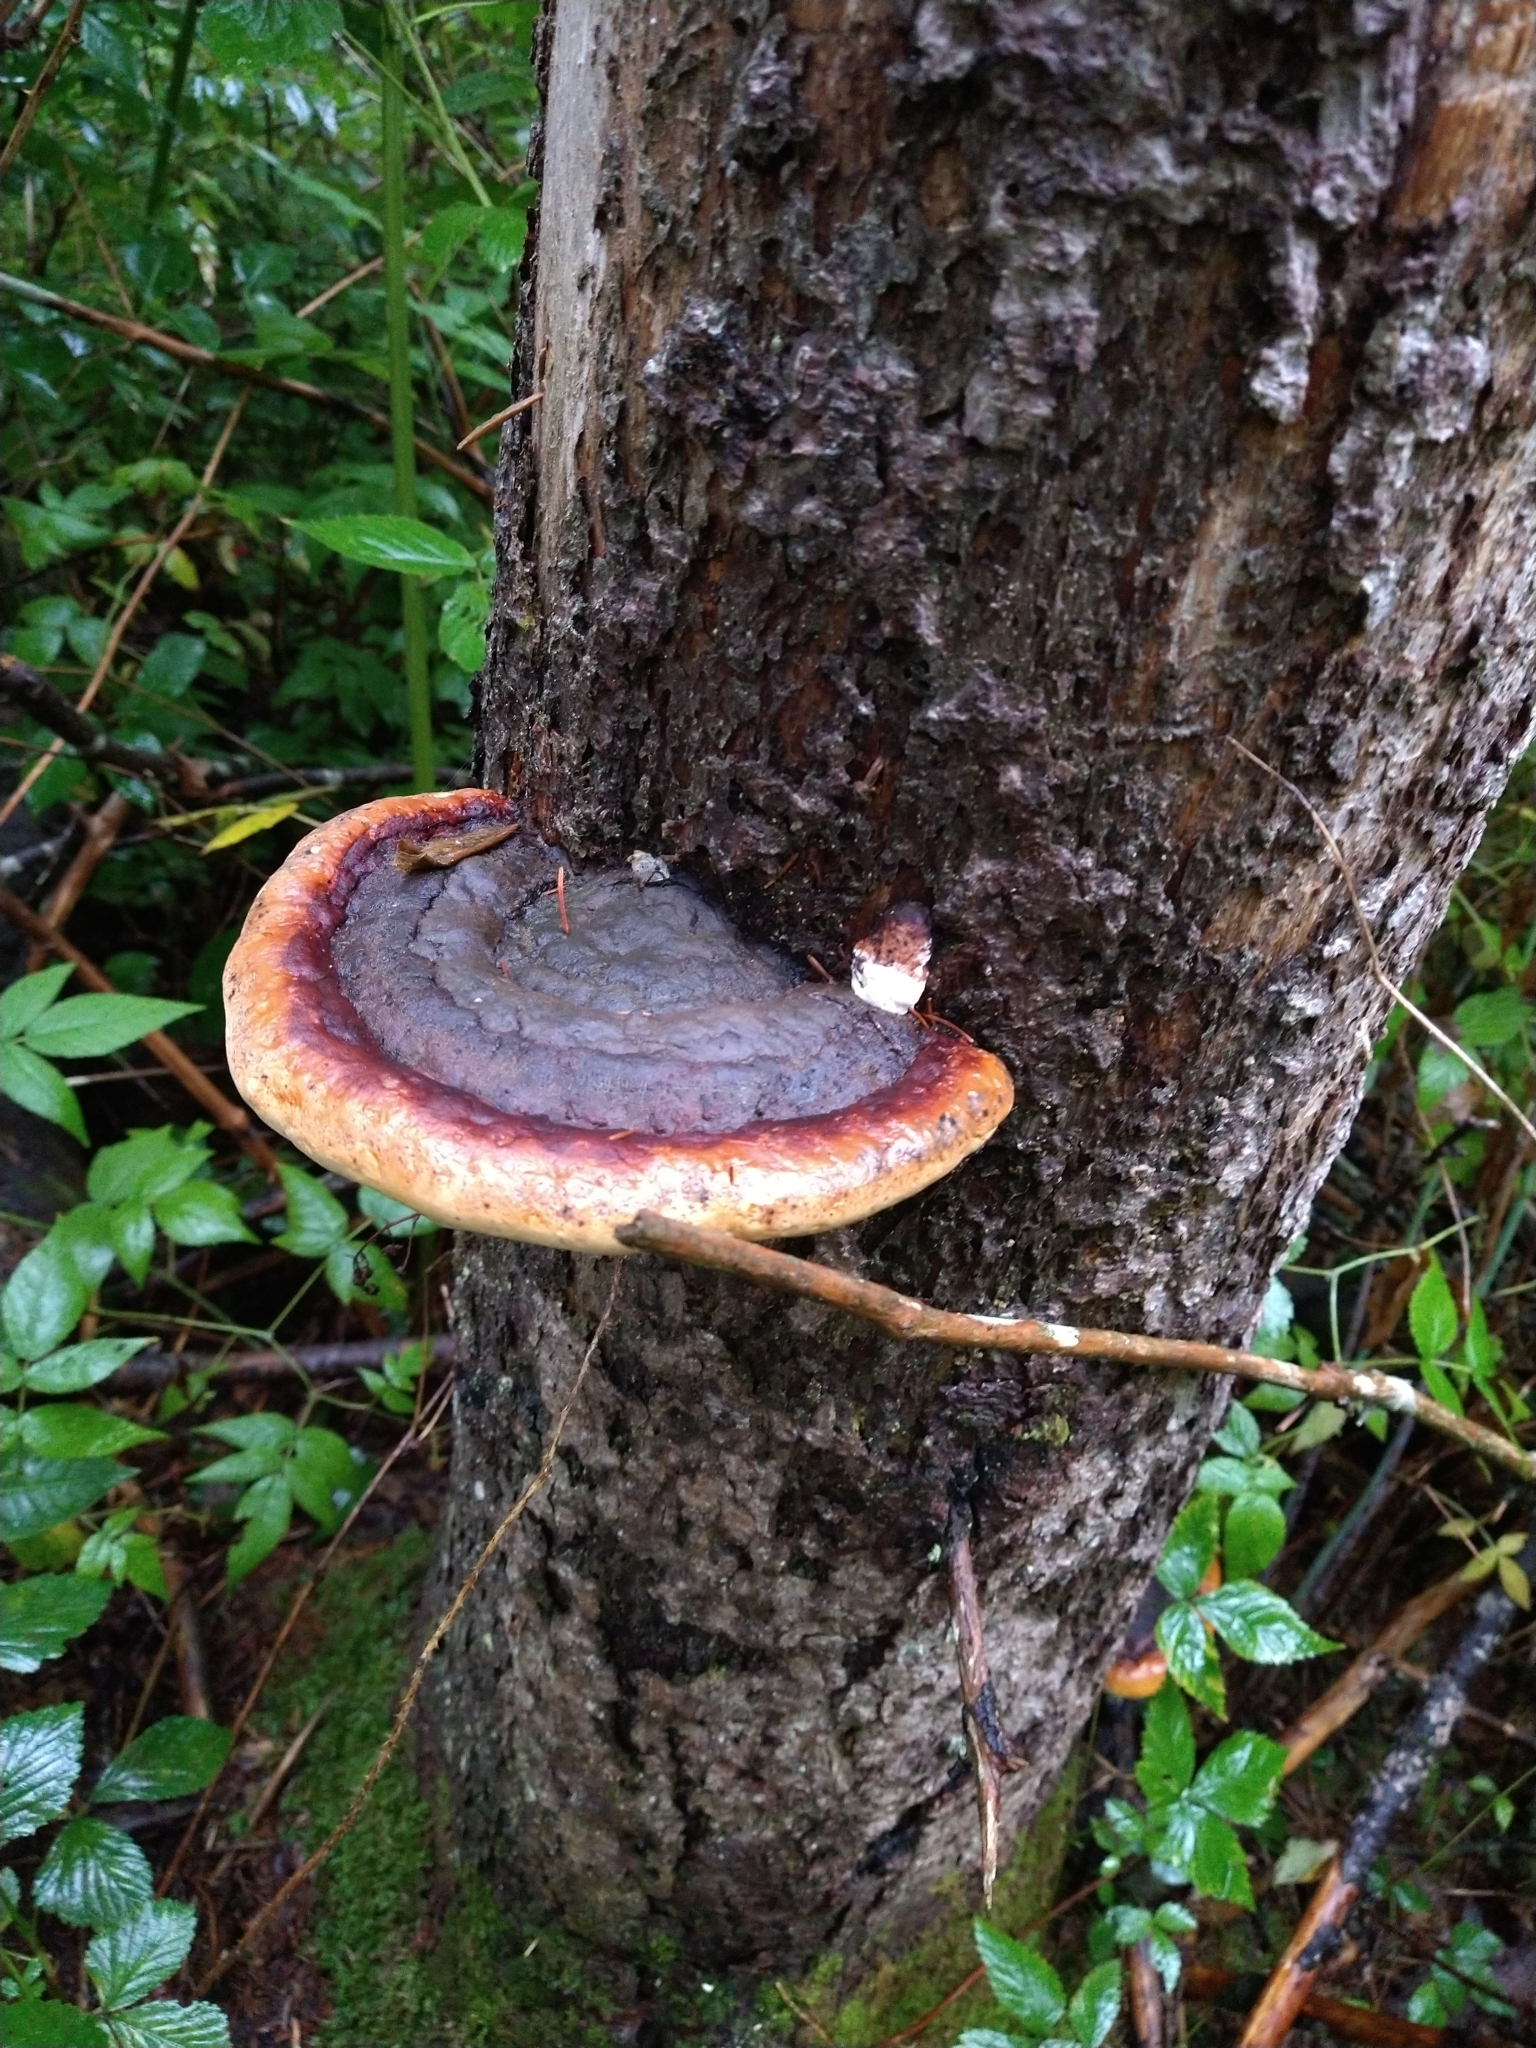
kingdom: Fungi
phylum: Basidiomycota
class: Agaricomycetes
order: Polyporales
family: Fomitopsidaceae
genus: Fomitopsis
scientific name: Fomitopsis mounceae
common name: Northern red belt
